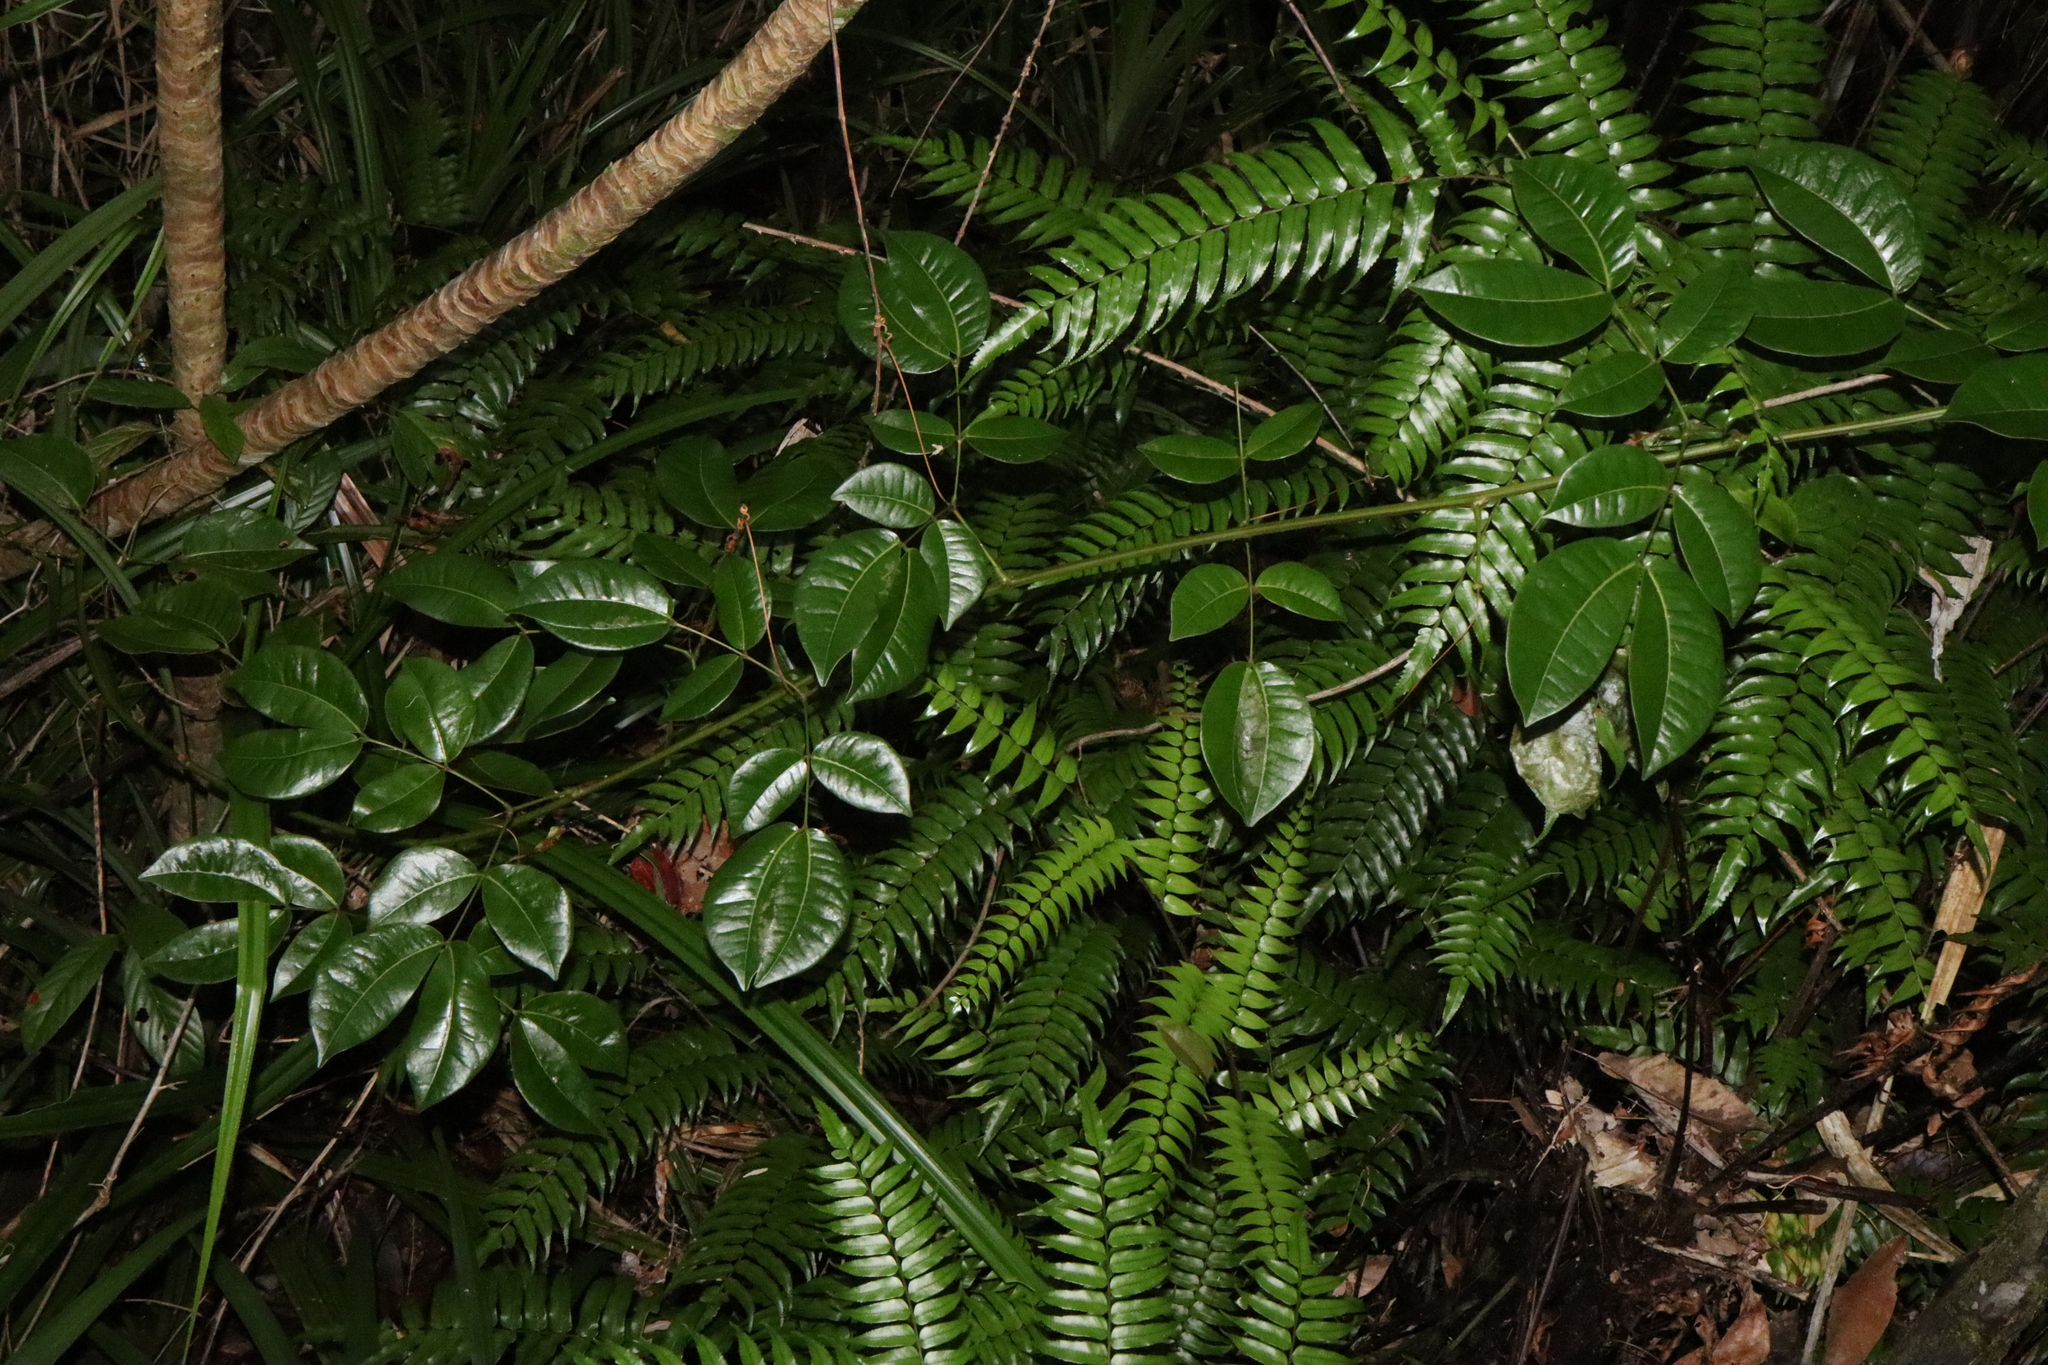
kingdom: Plantae
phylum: Tracheophyta
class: Magnoliopsida
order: Fabales
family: Fabaceae
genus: Entada
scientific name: Entada phaseoloides
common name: Matchbox-bean
